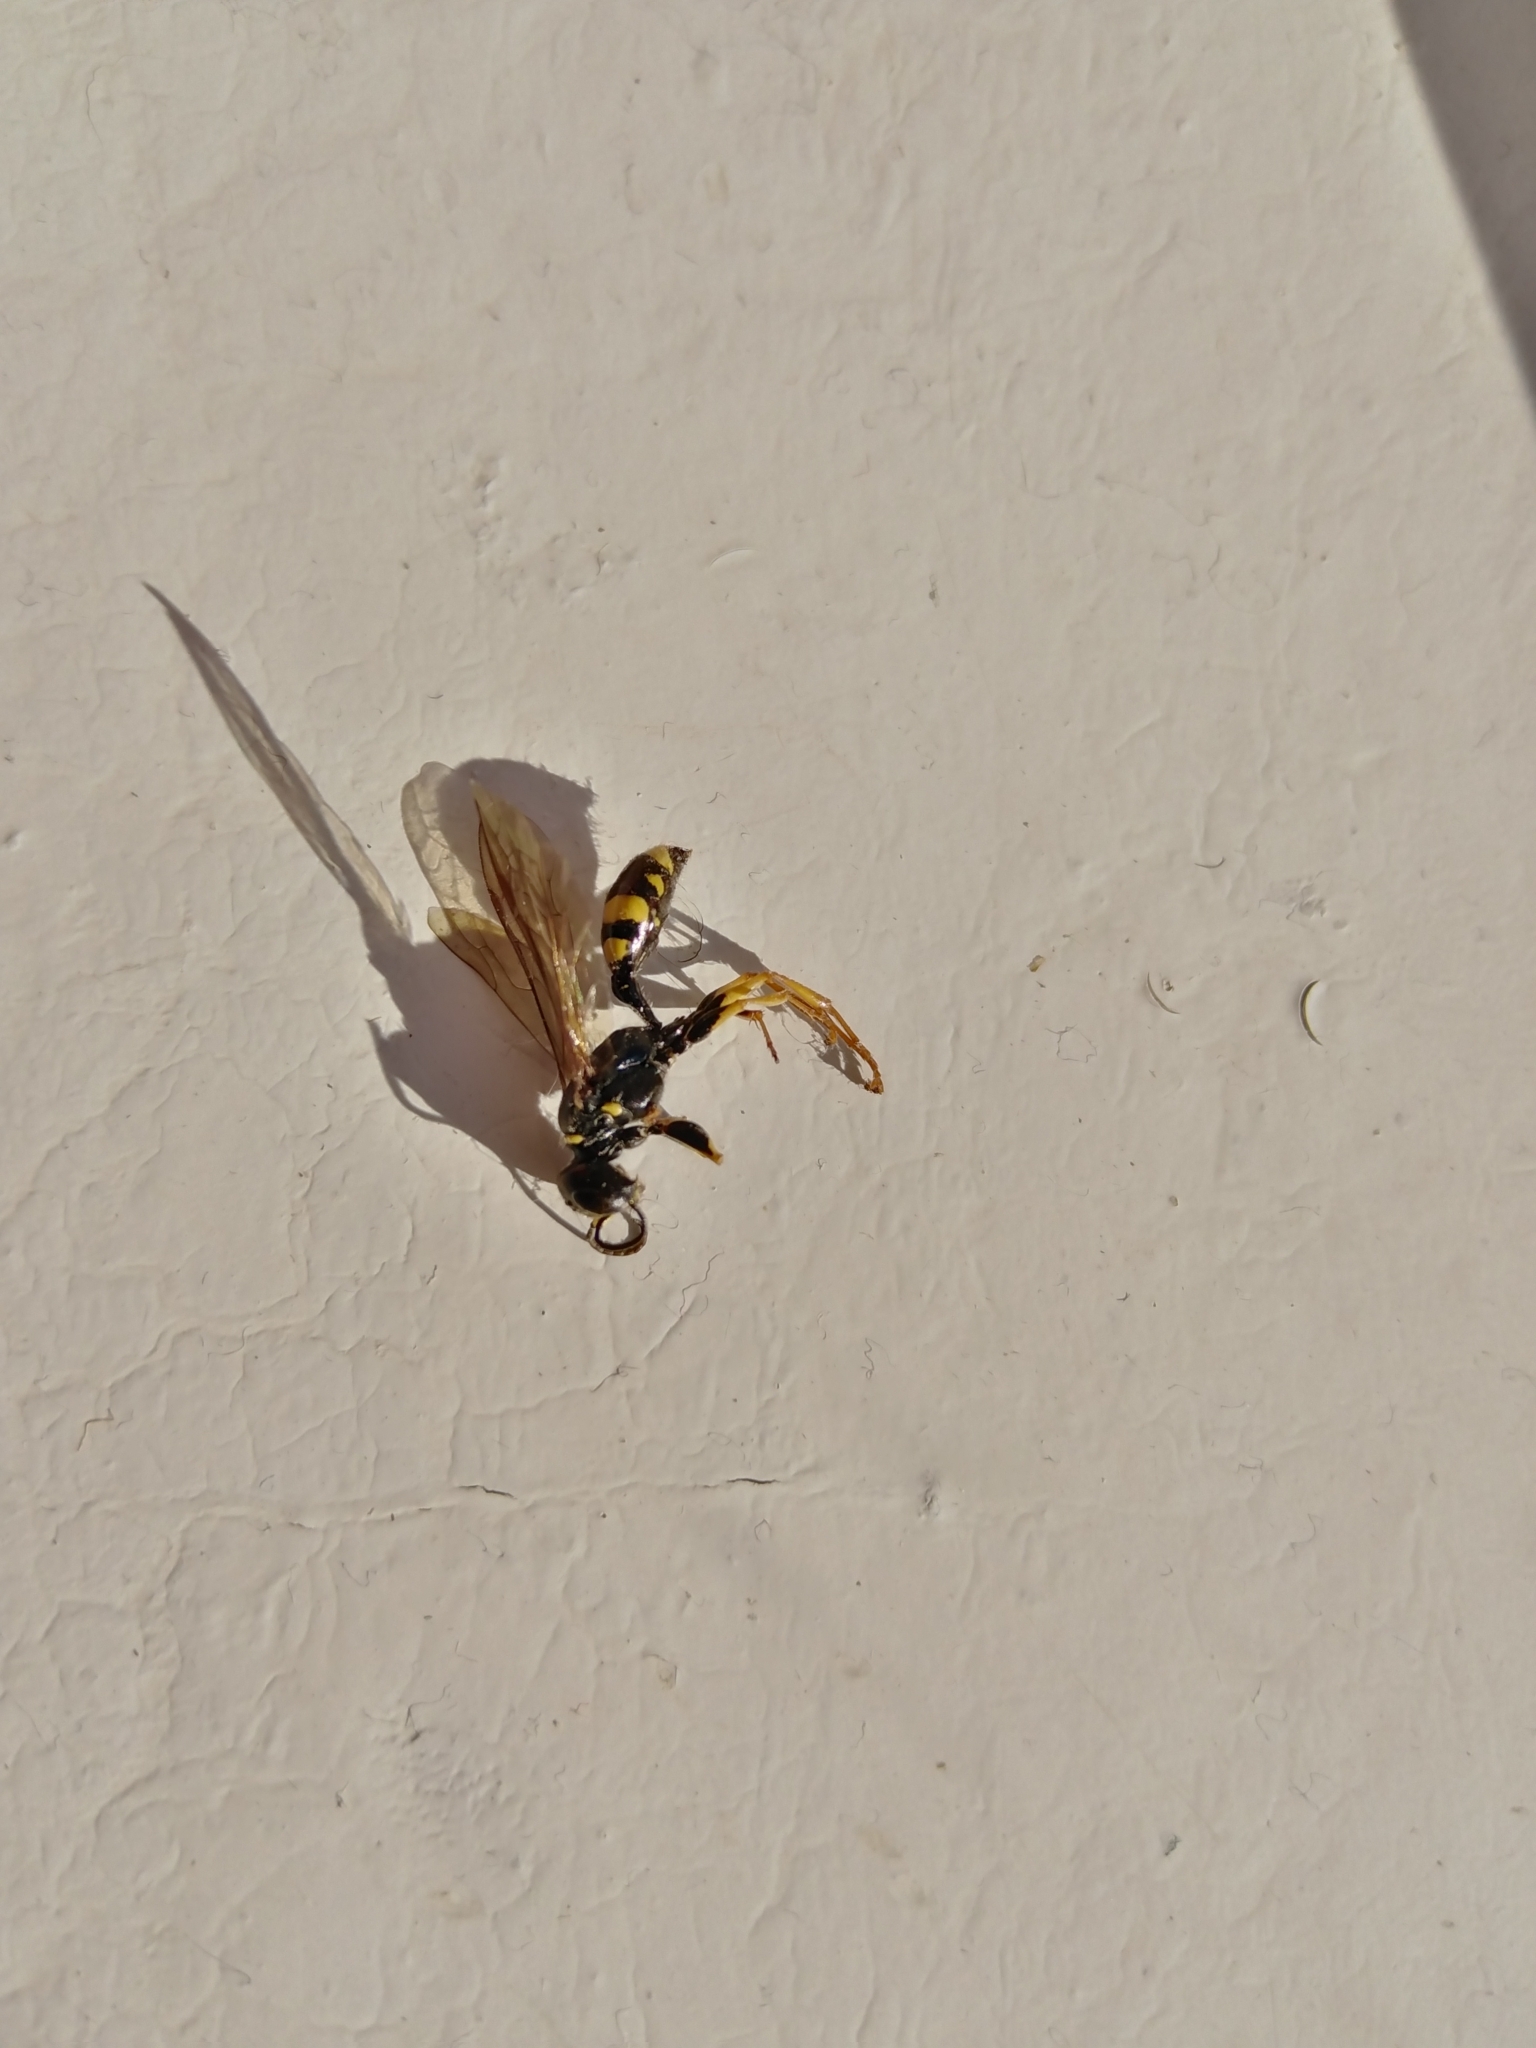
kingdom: Animalia
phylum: Arthropoda
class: Insecta
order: Hymenoptera
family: Crabronidae
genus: Mellinus
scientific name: Mellinus arvensis
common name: Field digger wasp
